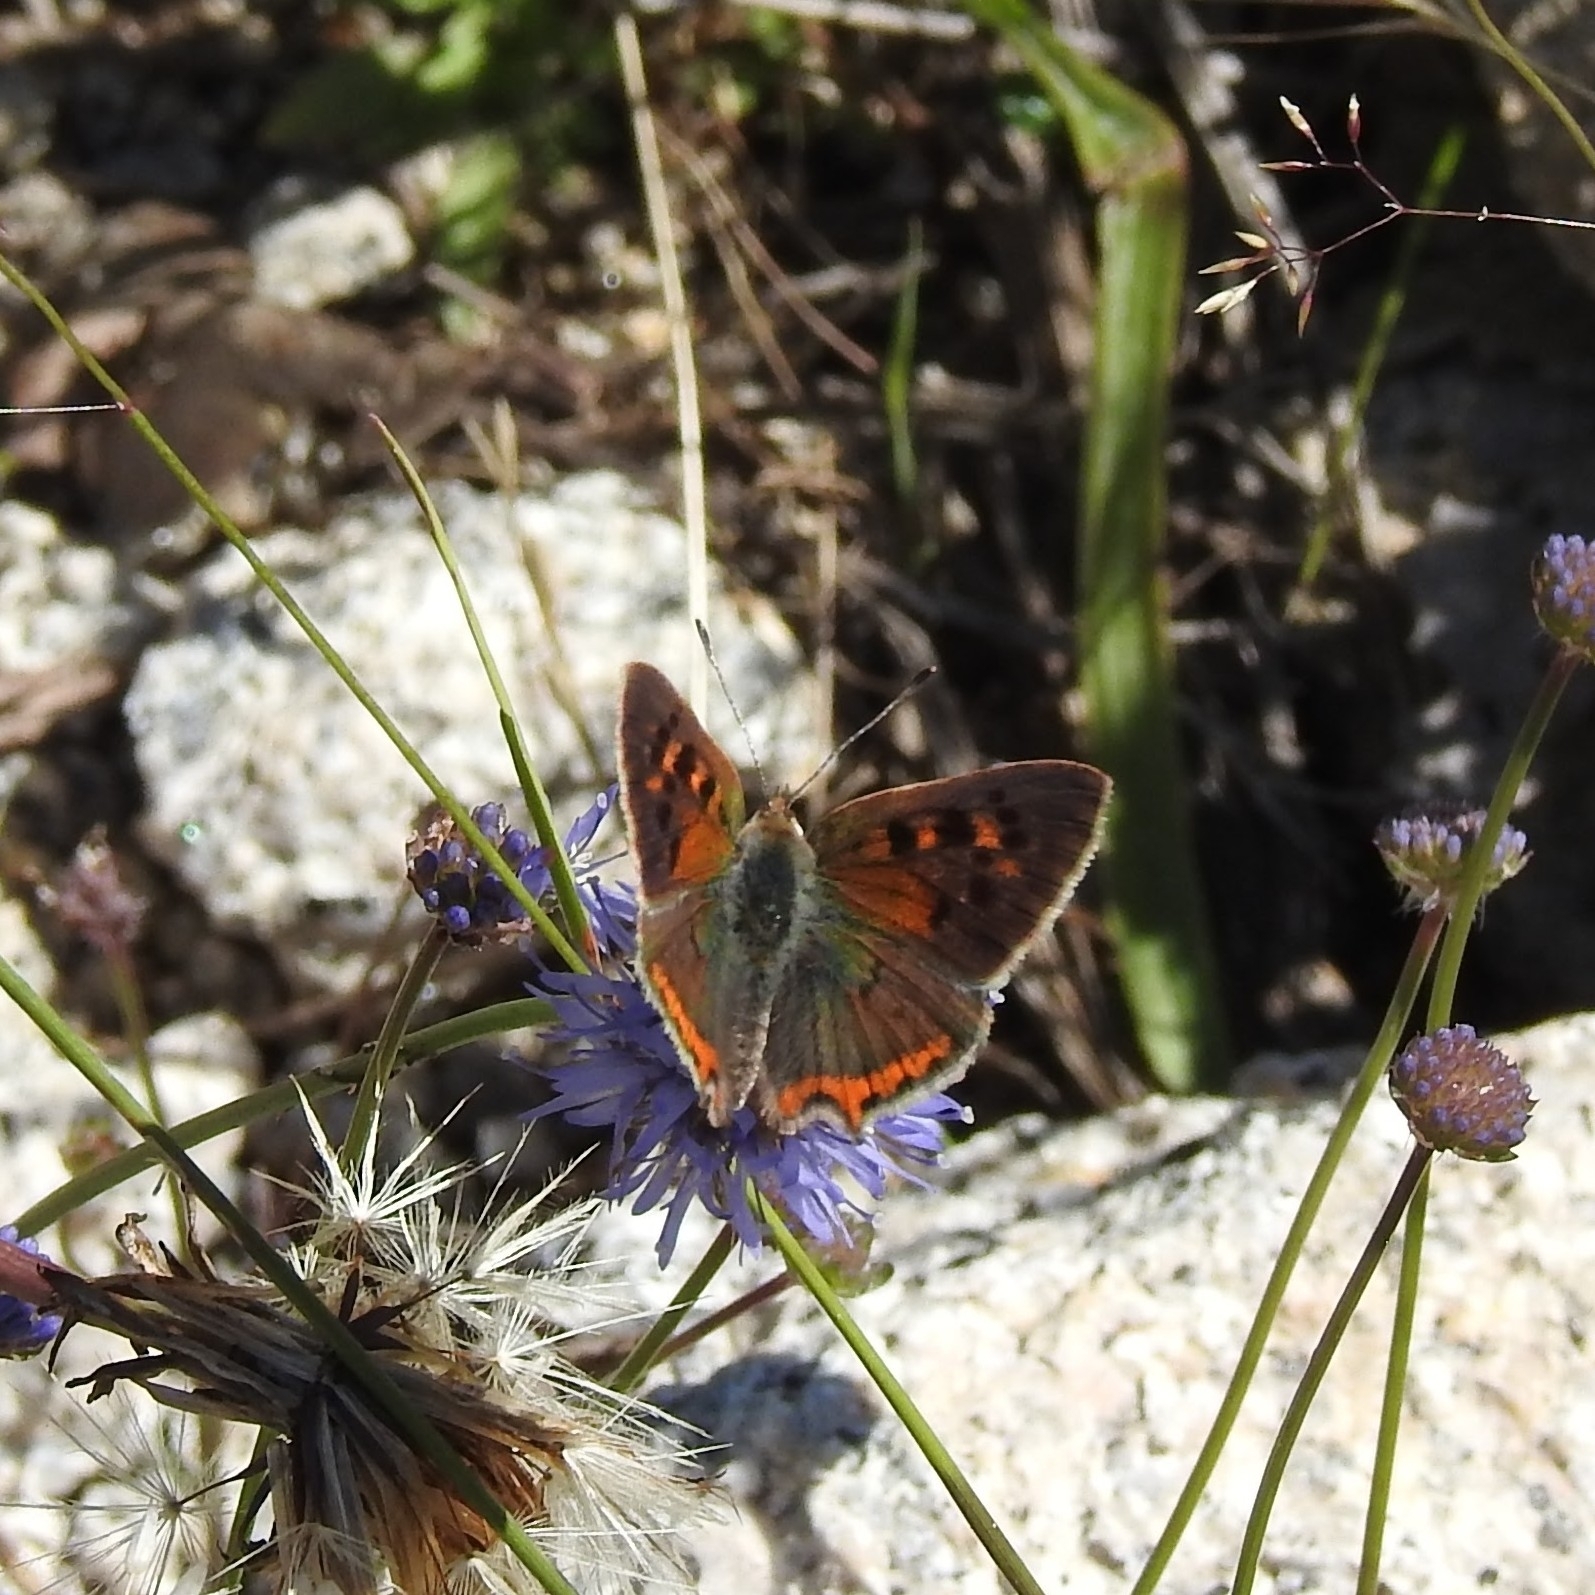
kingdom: Animalia
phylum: Arthropoda
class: Insecta
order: Lepidoptera
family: Lycaenidae
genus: Lycaena
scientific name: Lycaena phlaeas
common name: Small copper
